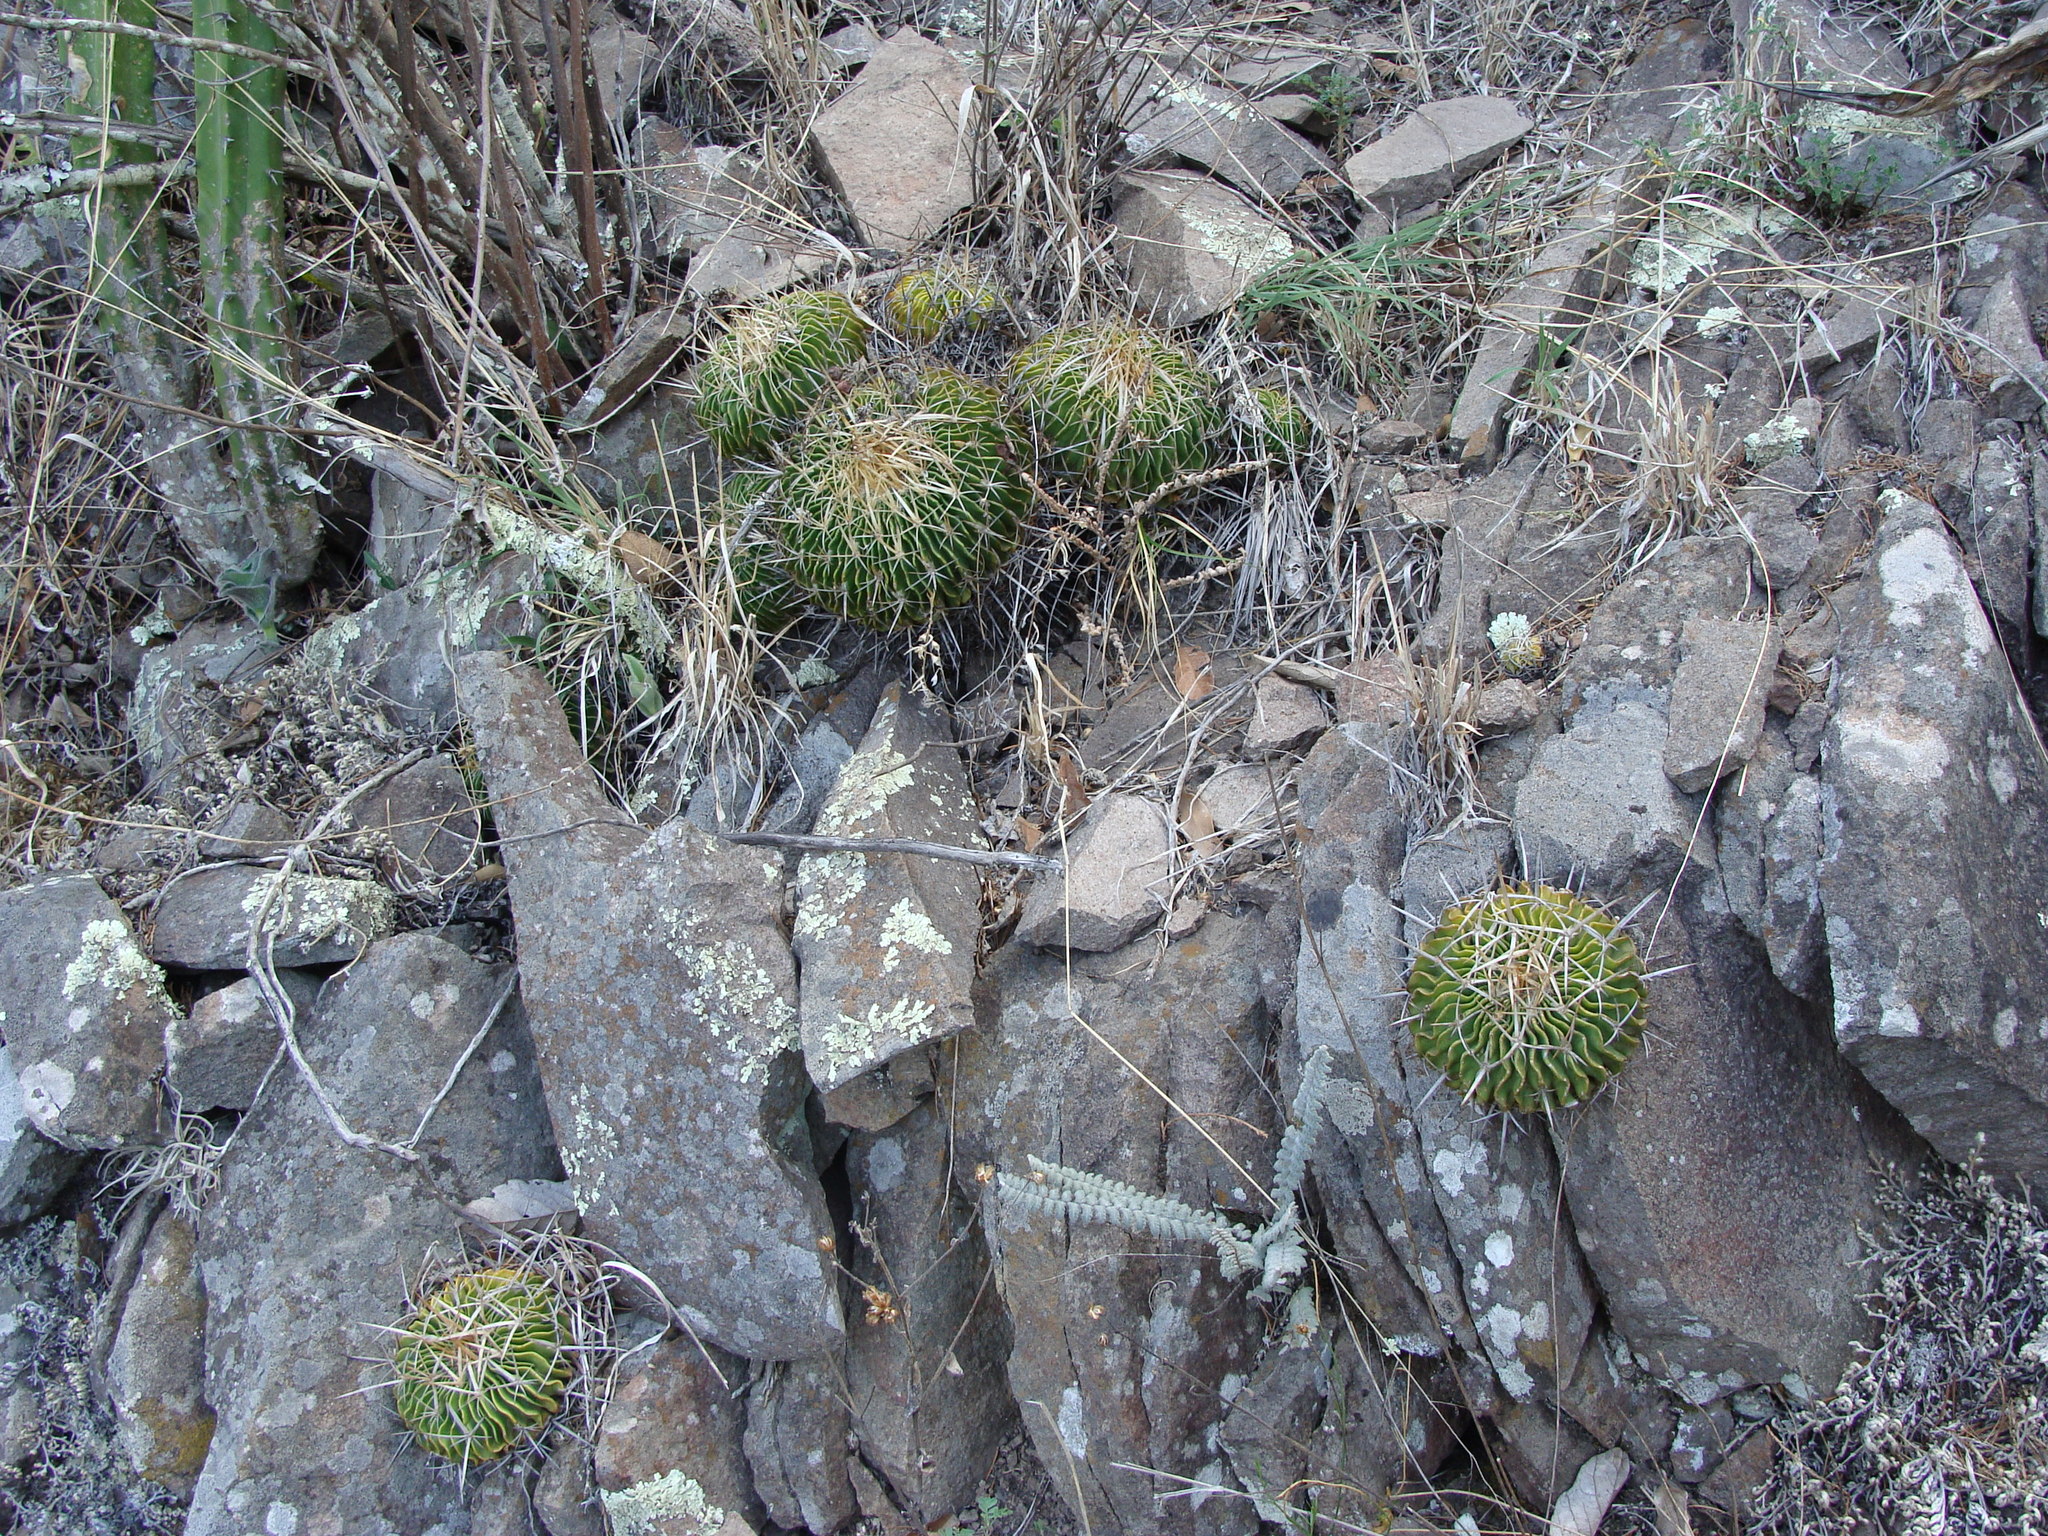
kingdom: Plantae
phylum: Tracheophyta
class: Magnoliopsida
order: Caryophyllales
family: Cactaceae
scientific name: Cactaceae
